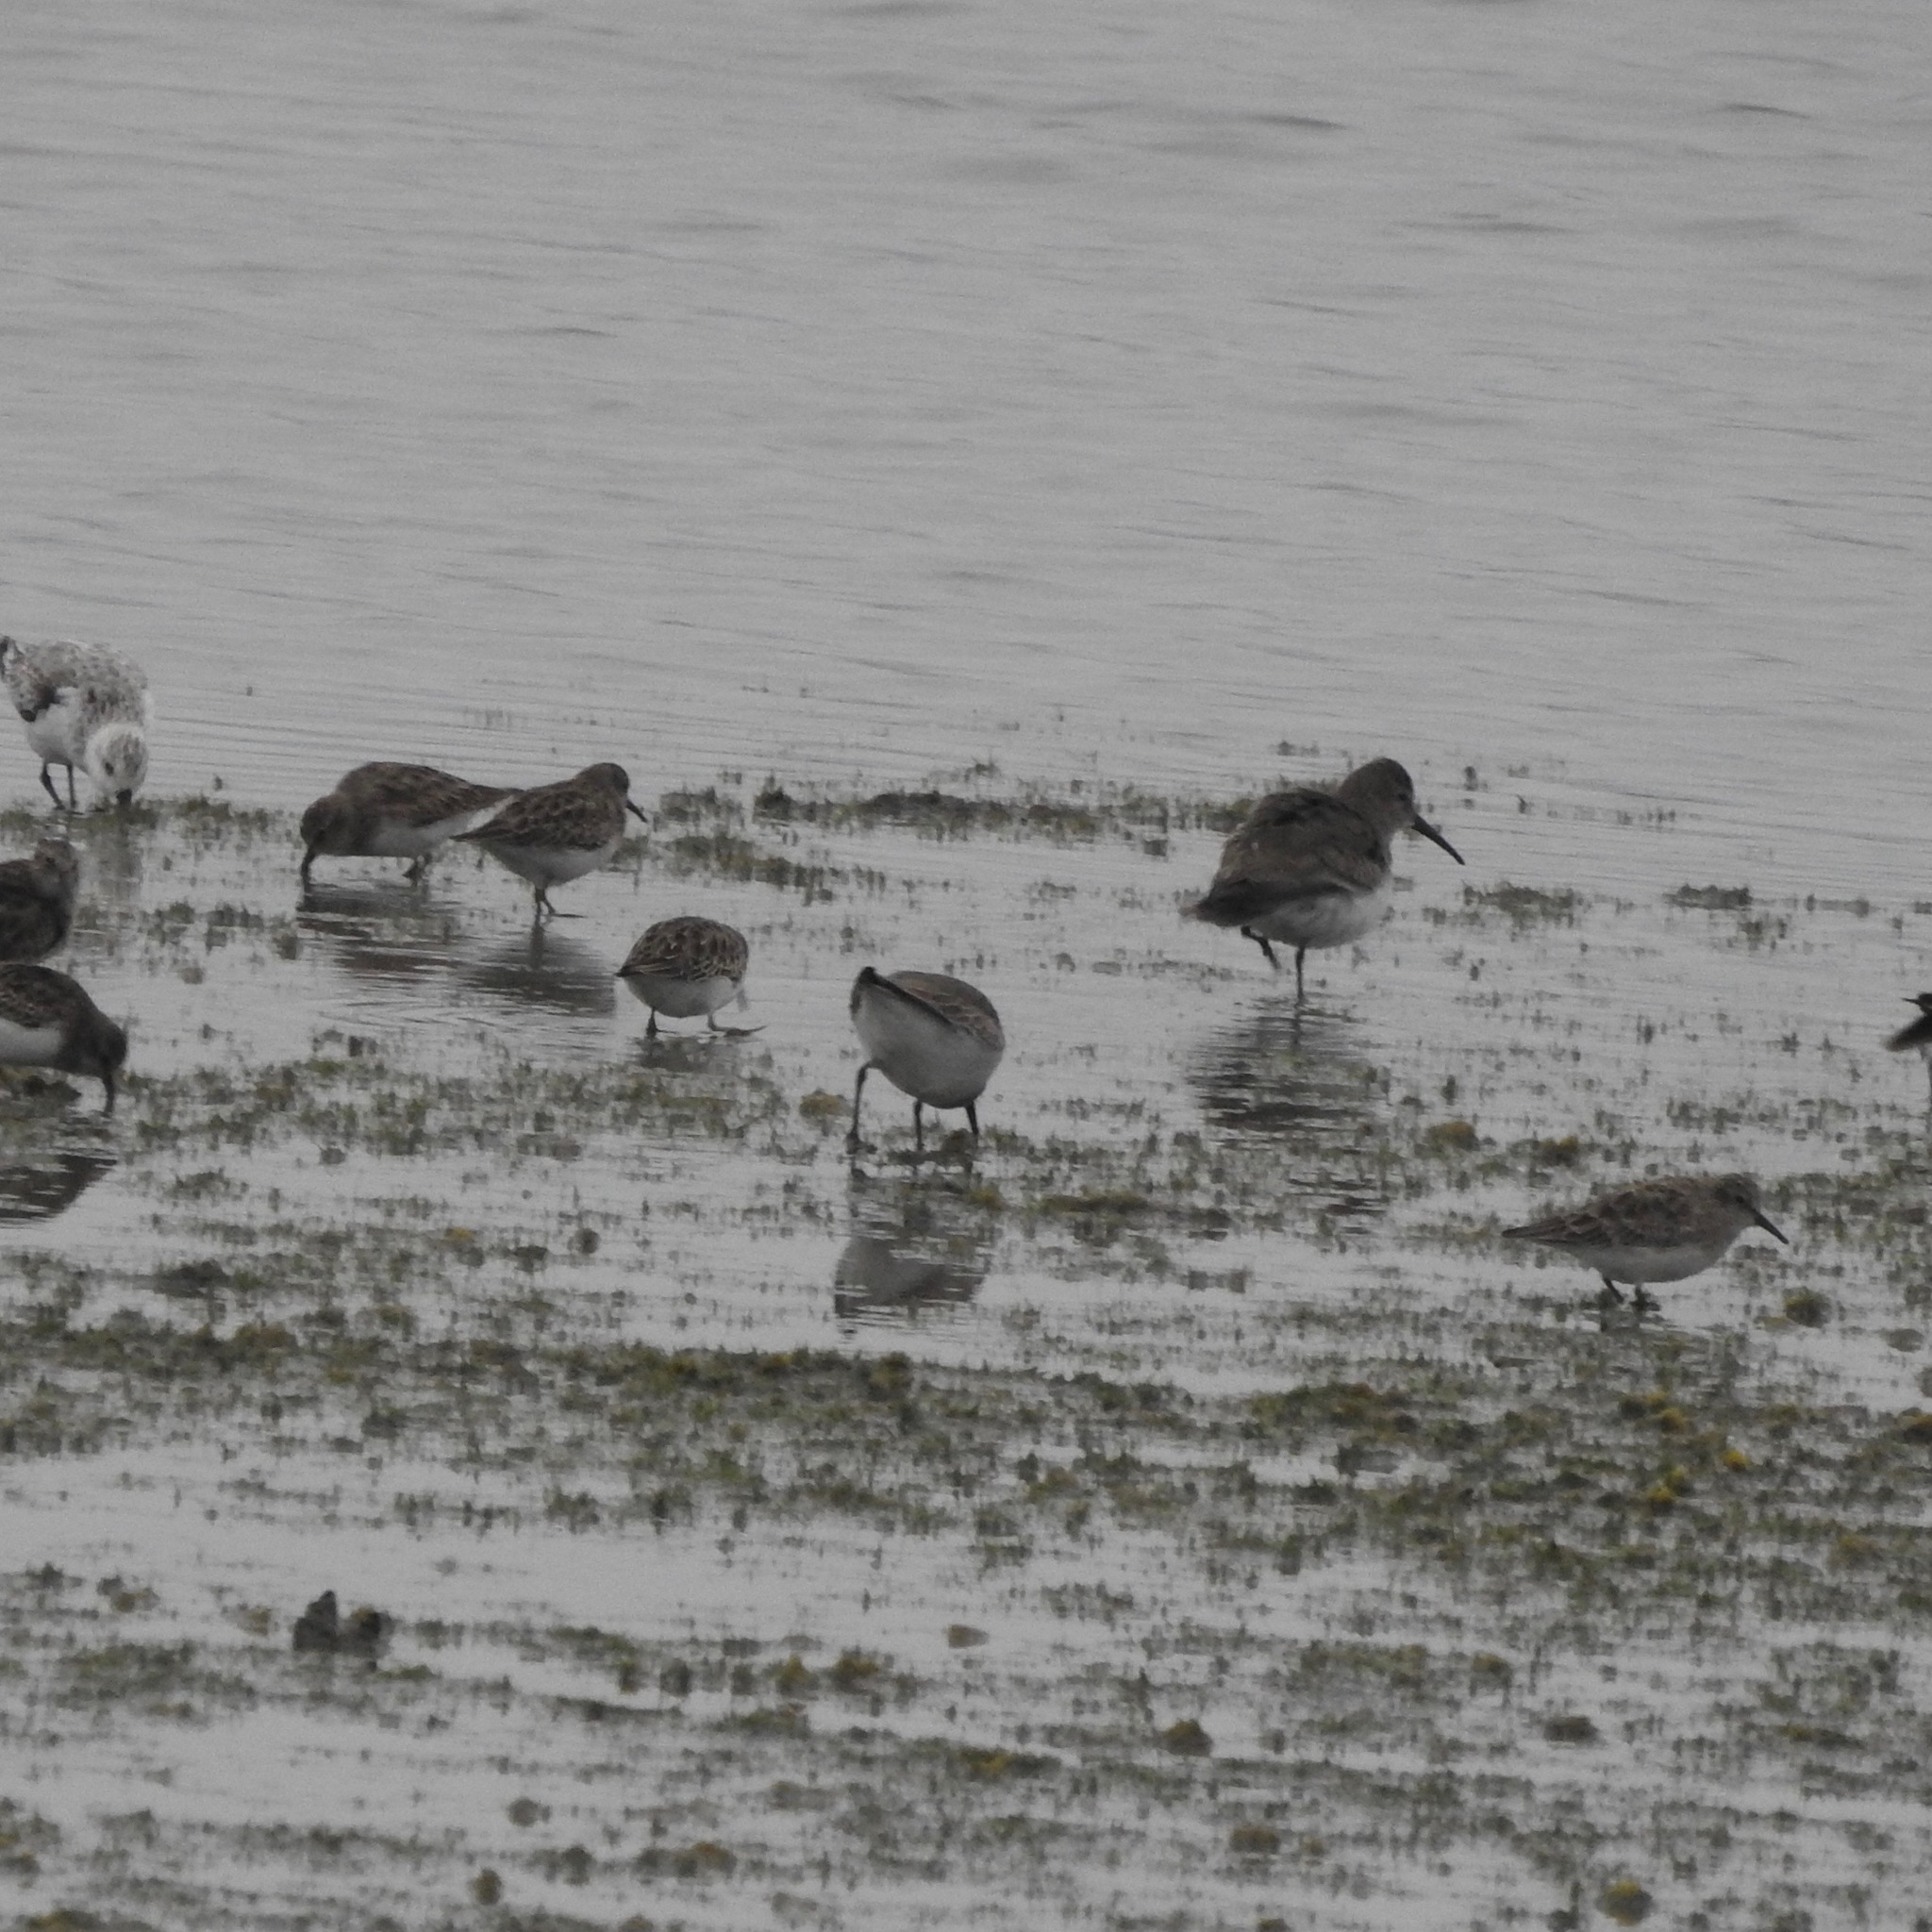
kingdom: Animalia
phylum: Chordata
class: Aves
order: Charadriiformes
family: Scolopacidae
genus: Calidris
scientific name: Calidris alpina
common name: Dunlin
